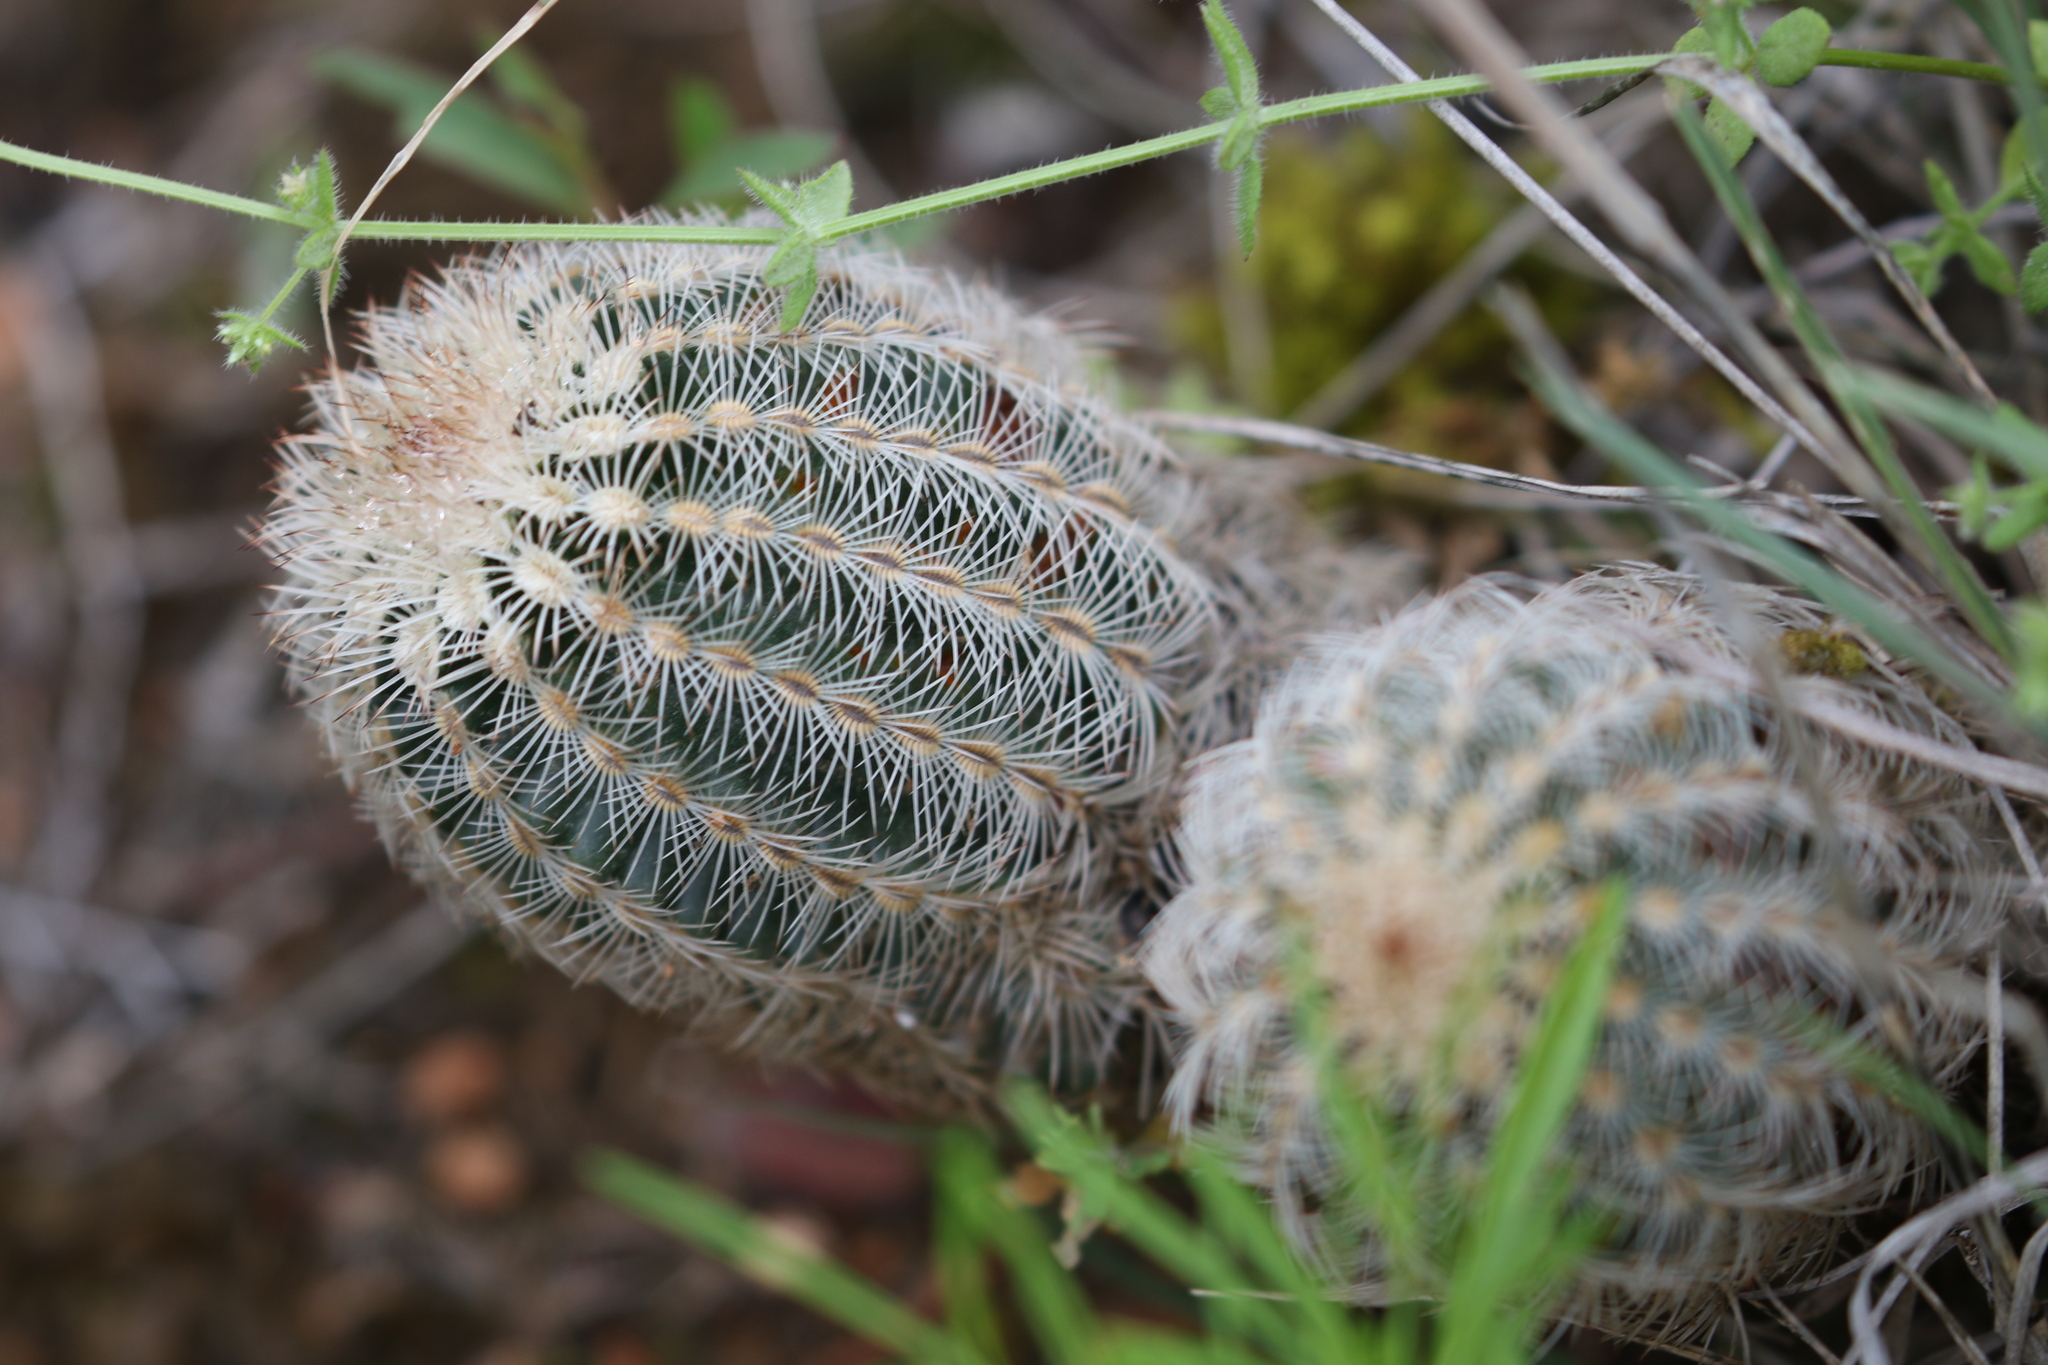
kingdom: Plantae
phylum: Tracheophyta
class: Magnoliopsida
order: Caryophyllales
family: Cactaceae
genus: Echinocereus
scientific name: Echinocereus reichenbachii
